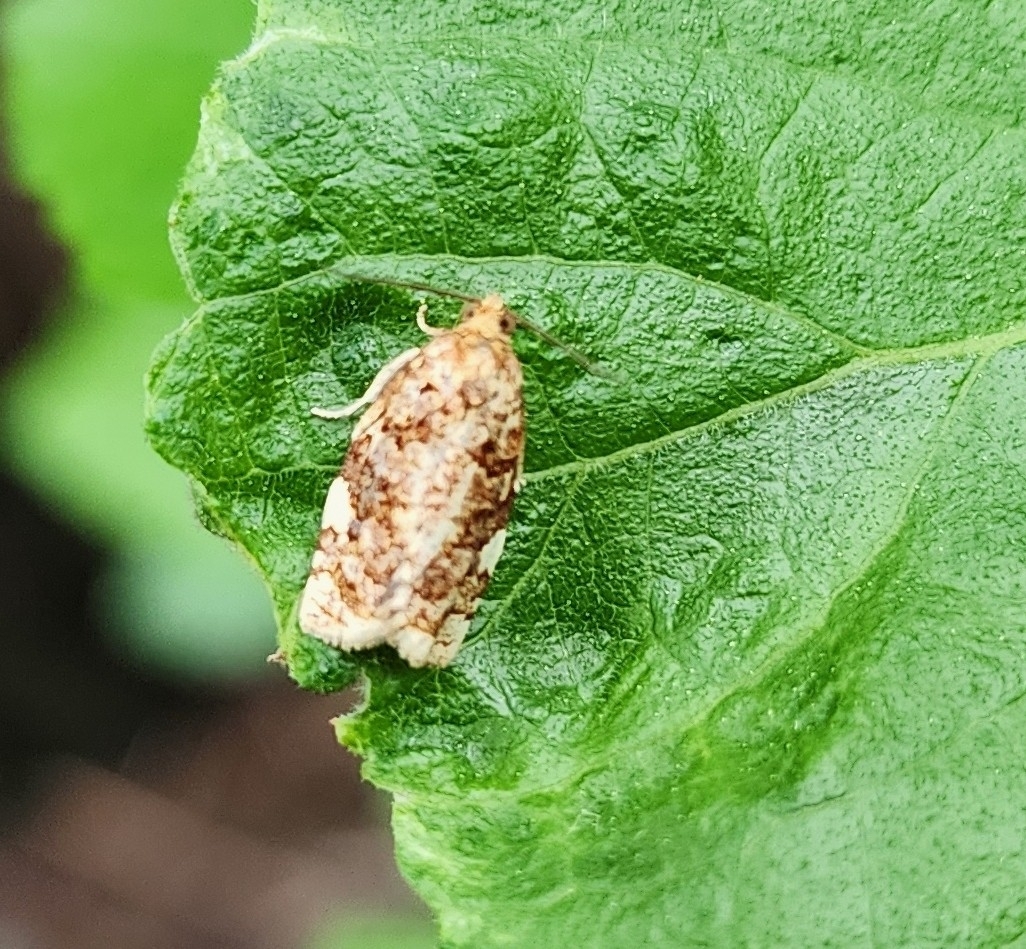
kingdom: Animalia
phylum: Arthropoda
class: Insecta
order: Lepidoptera
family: Tortricidae
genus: Archips
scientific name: Archips argyrospila
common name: Fruit-tree leafroller moth
